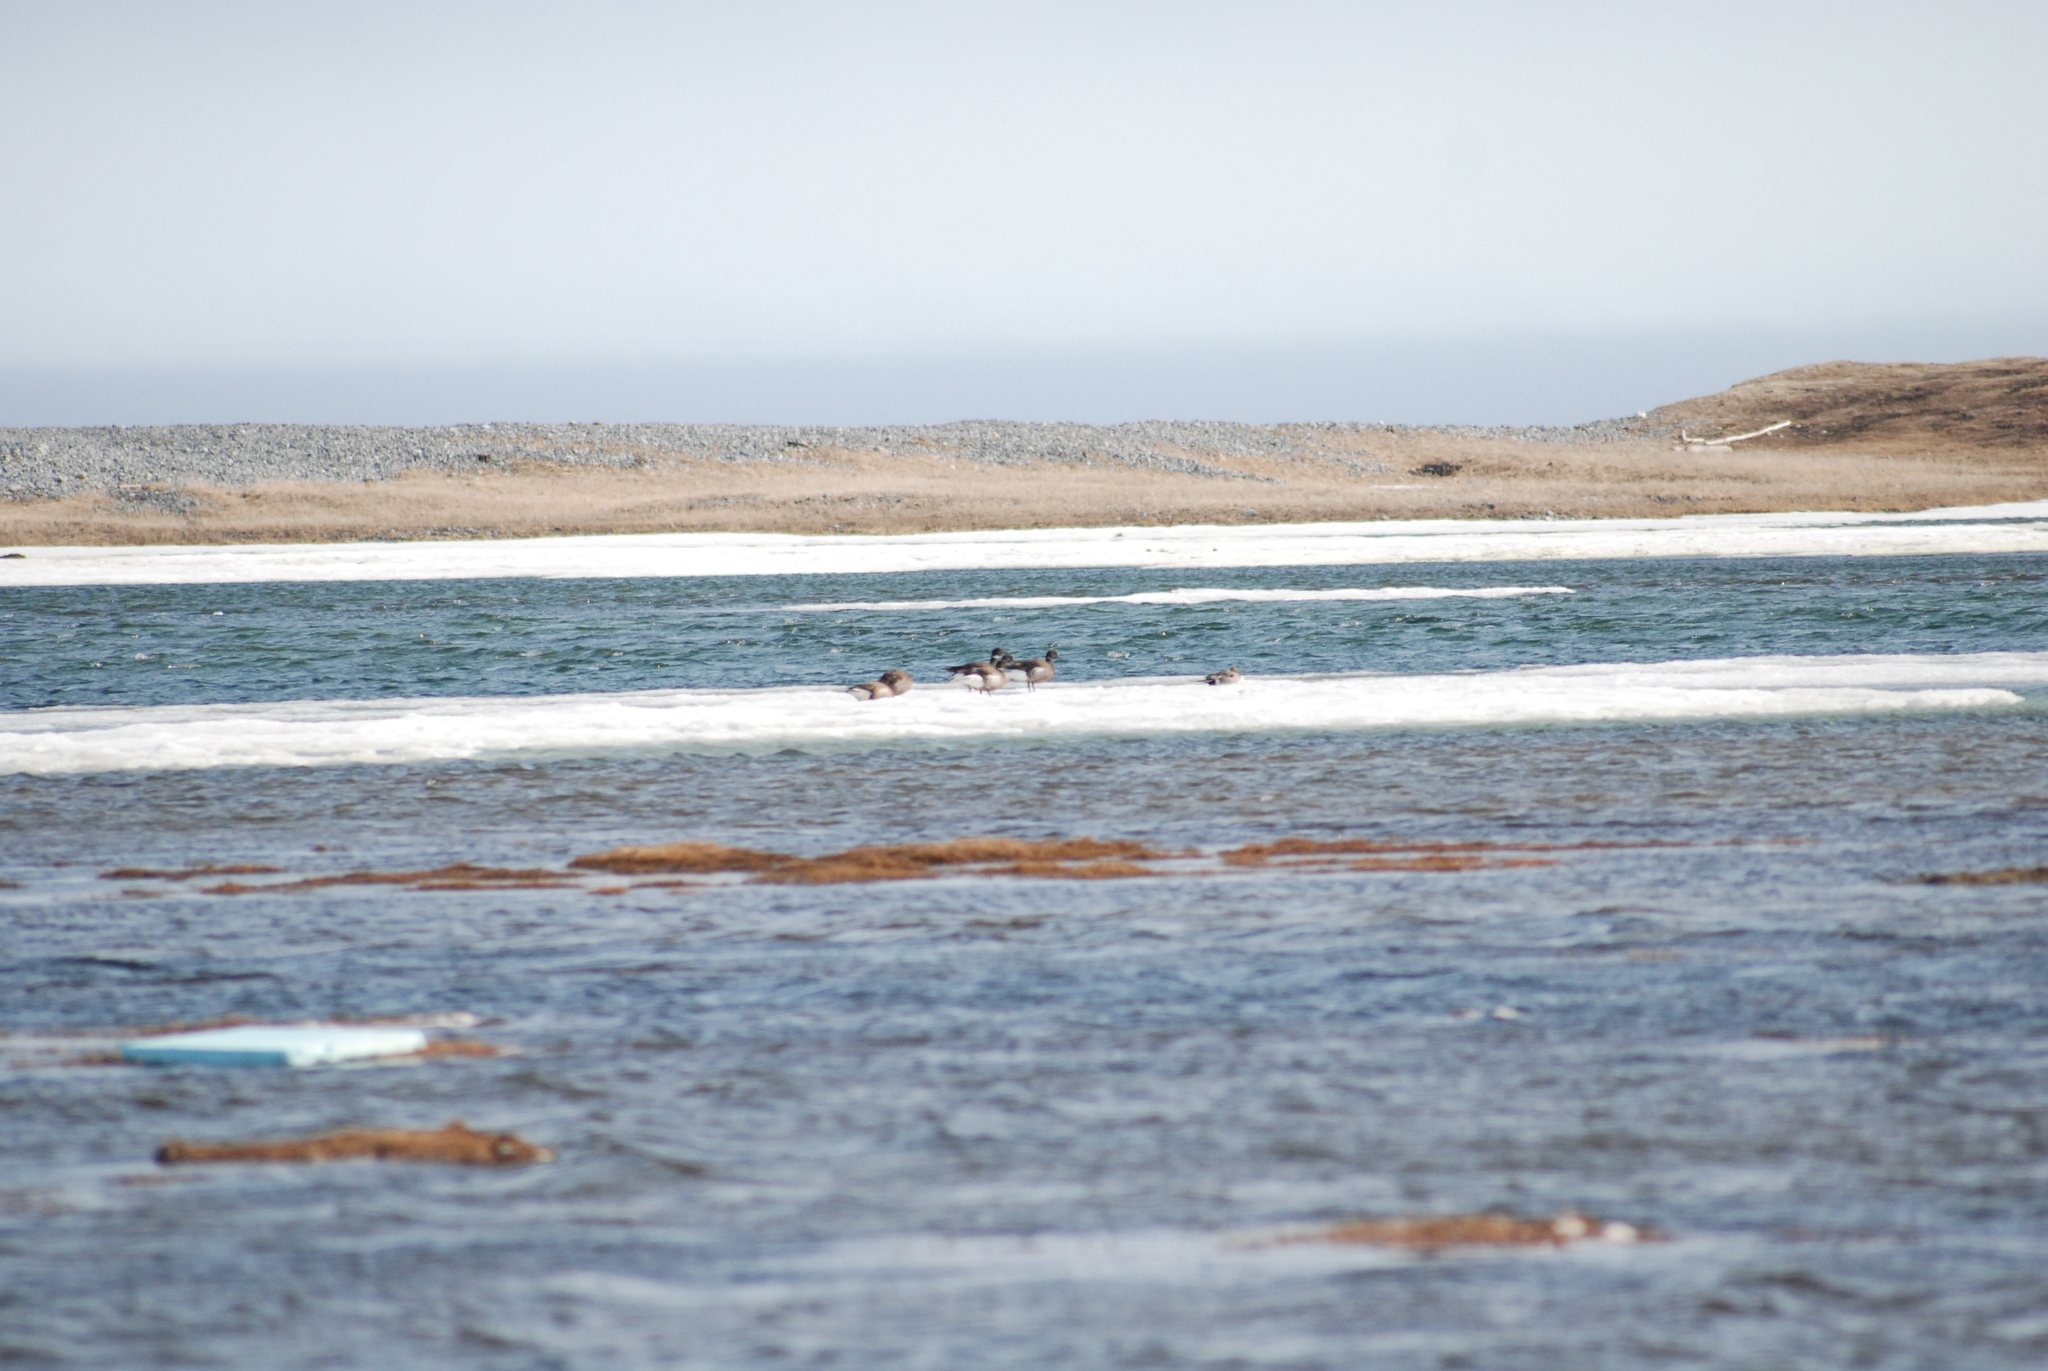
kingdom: Animalia
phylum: Chordata
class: Aves
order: Anseriformes
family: Anatidae
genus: Branta
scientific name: Branta bernicla
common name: Brant goose
